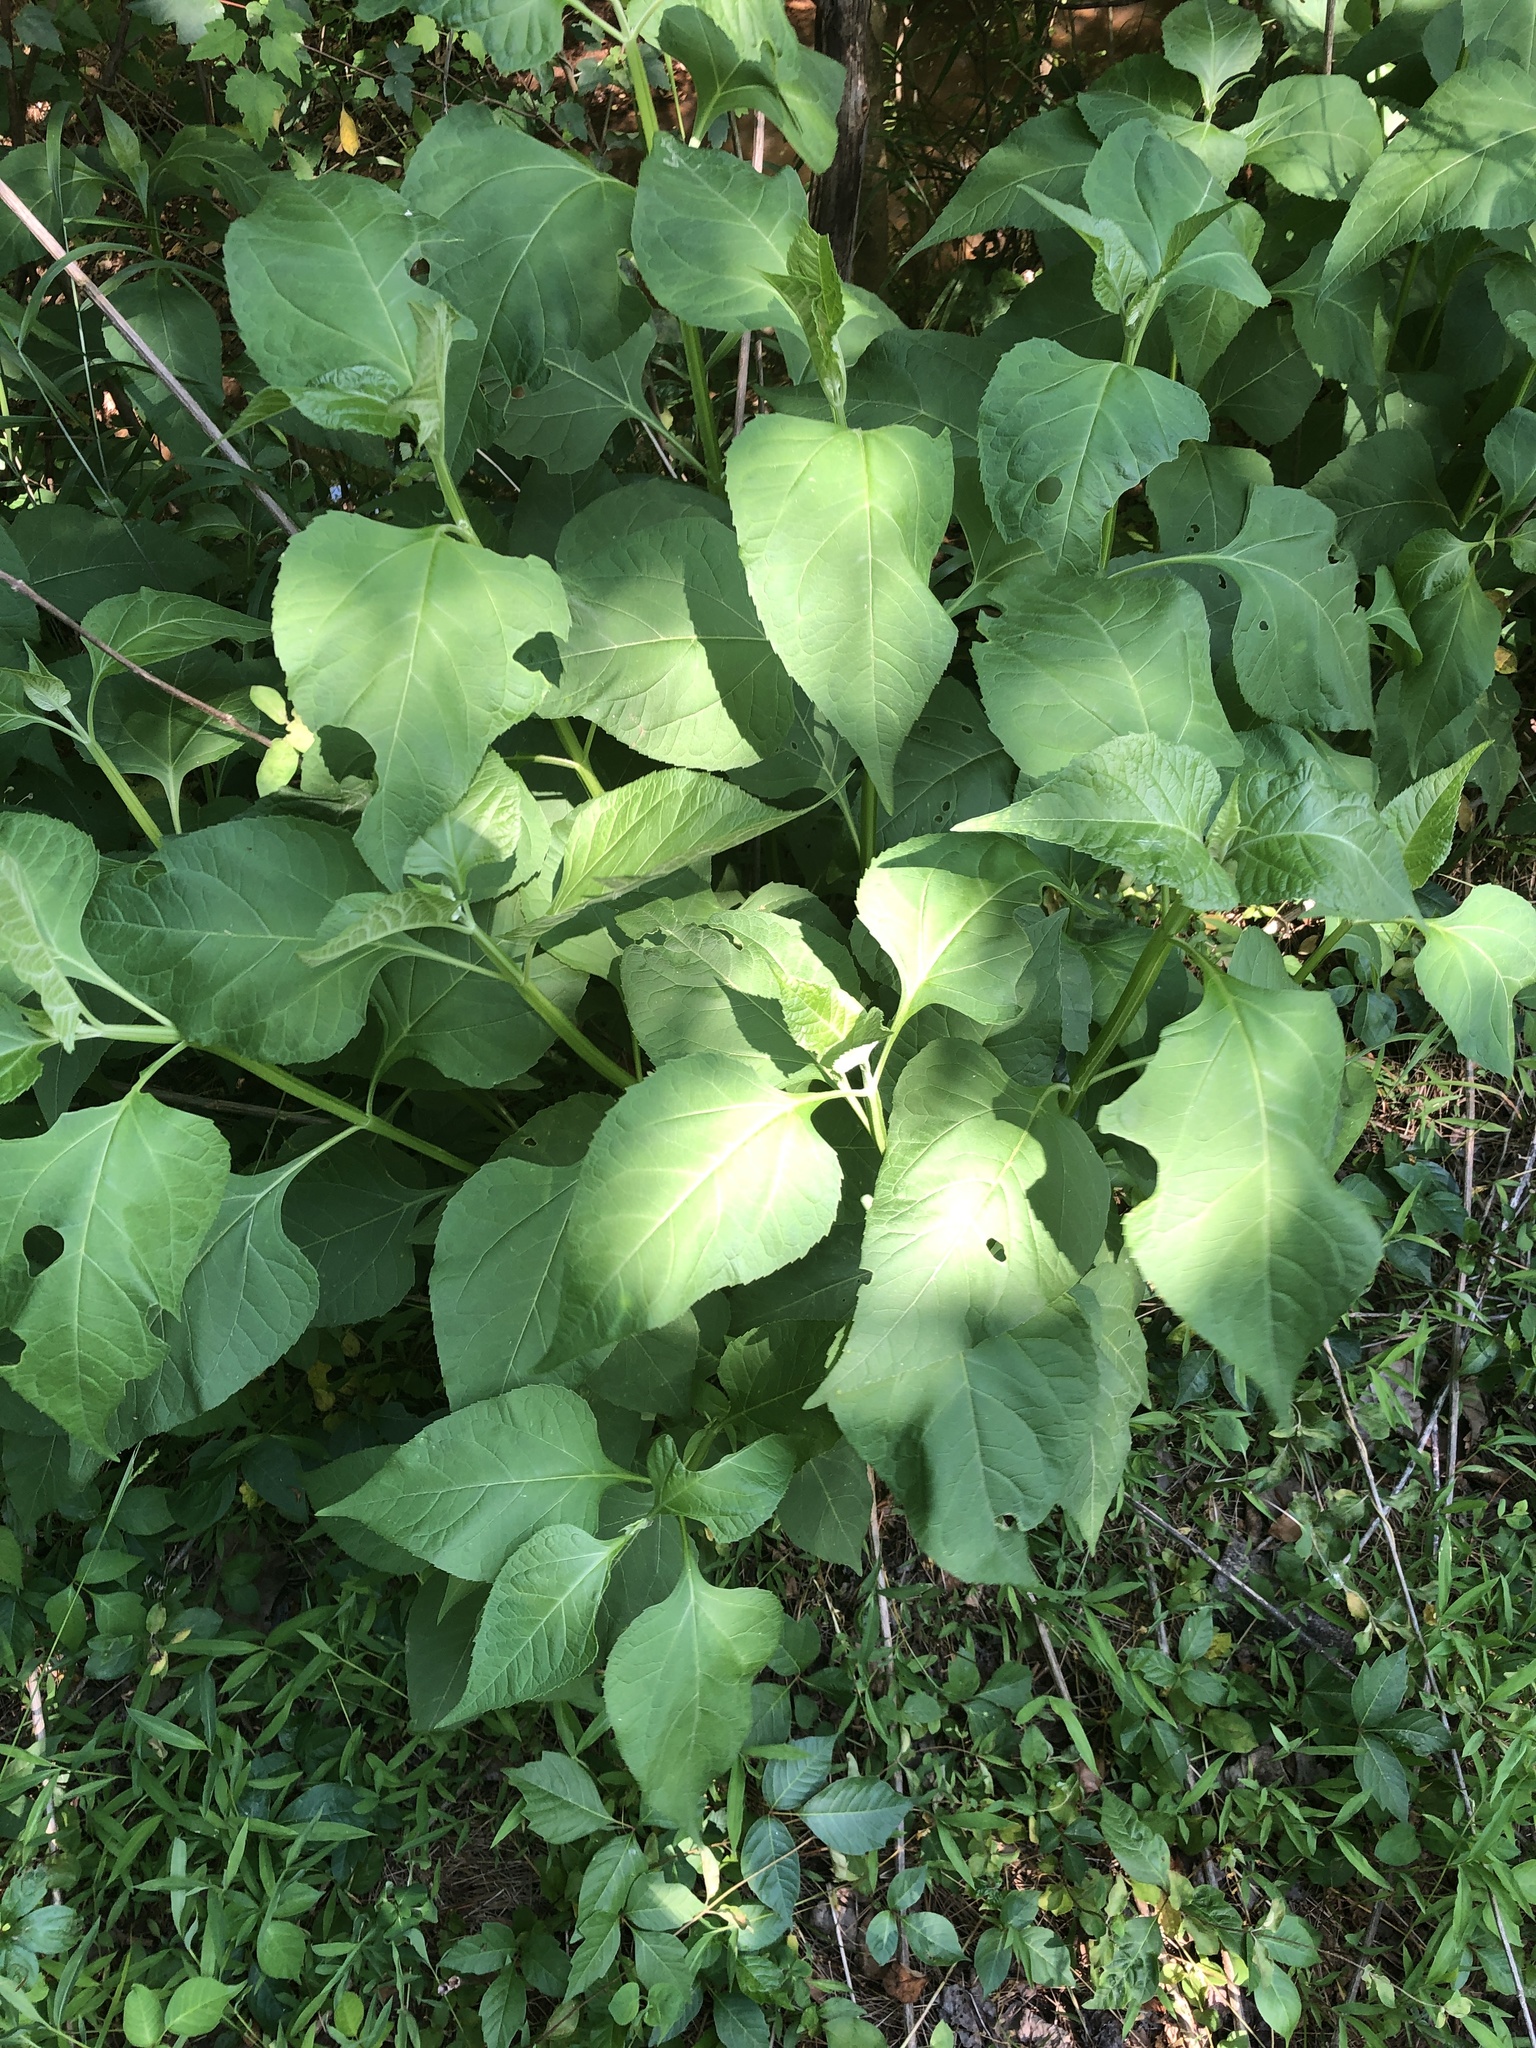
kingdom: Plantae
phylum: Tracheophyta
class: Magnoliopsida
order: Asterales
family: Asteraceae
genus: Verbesina
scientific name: Verbesina occidentalis
